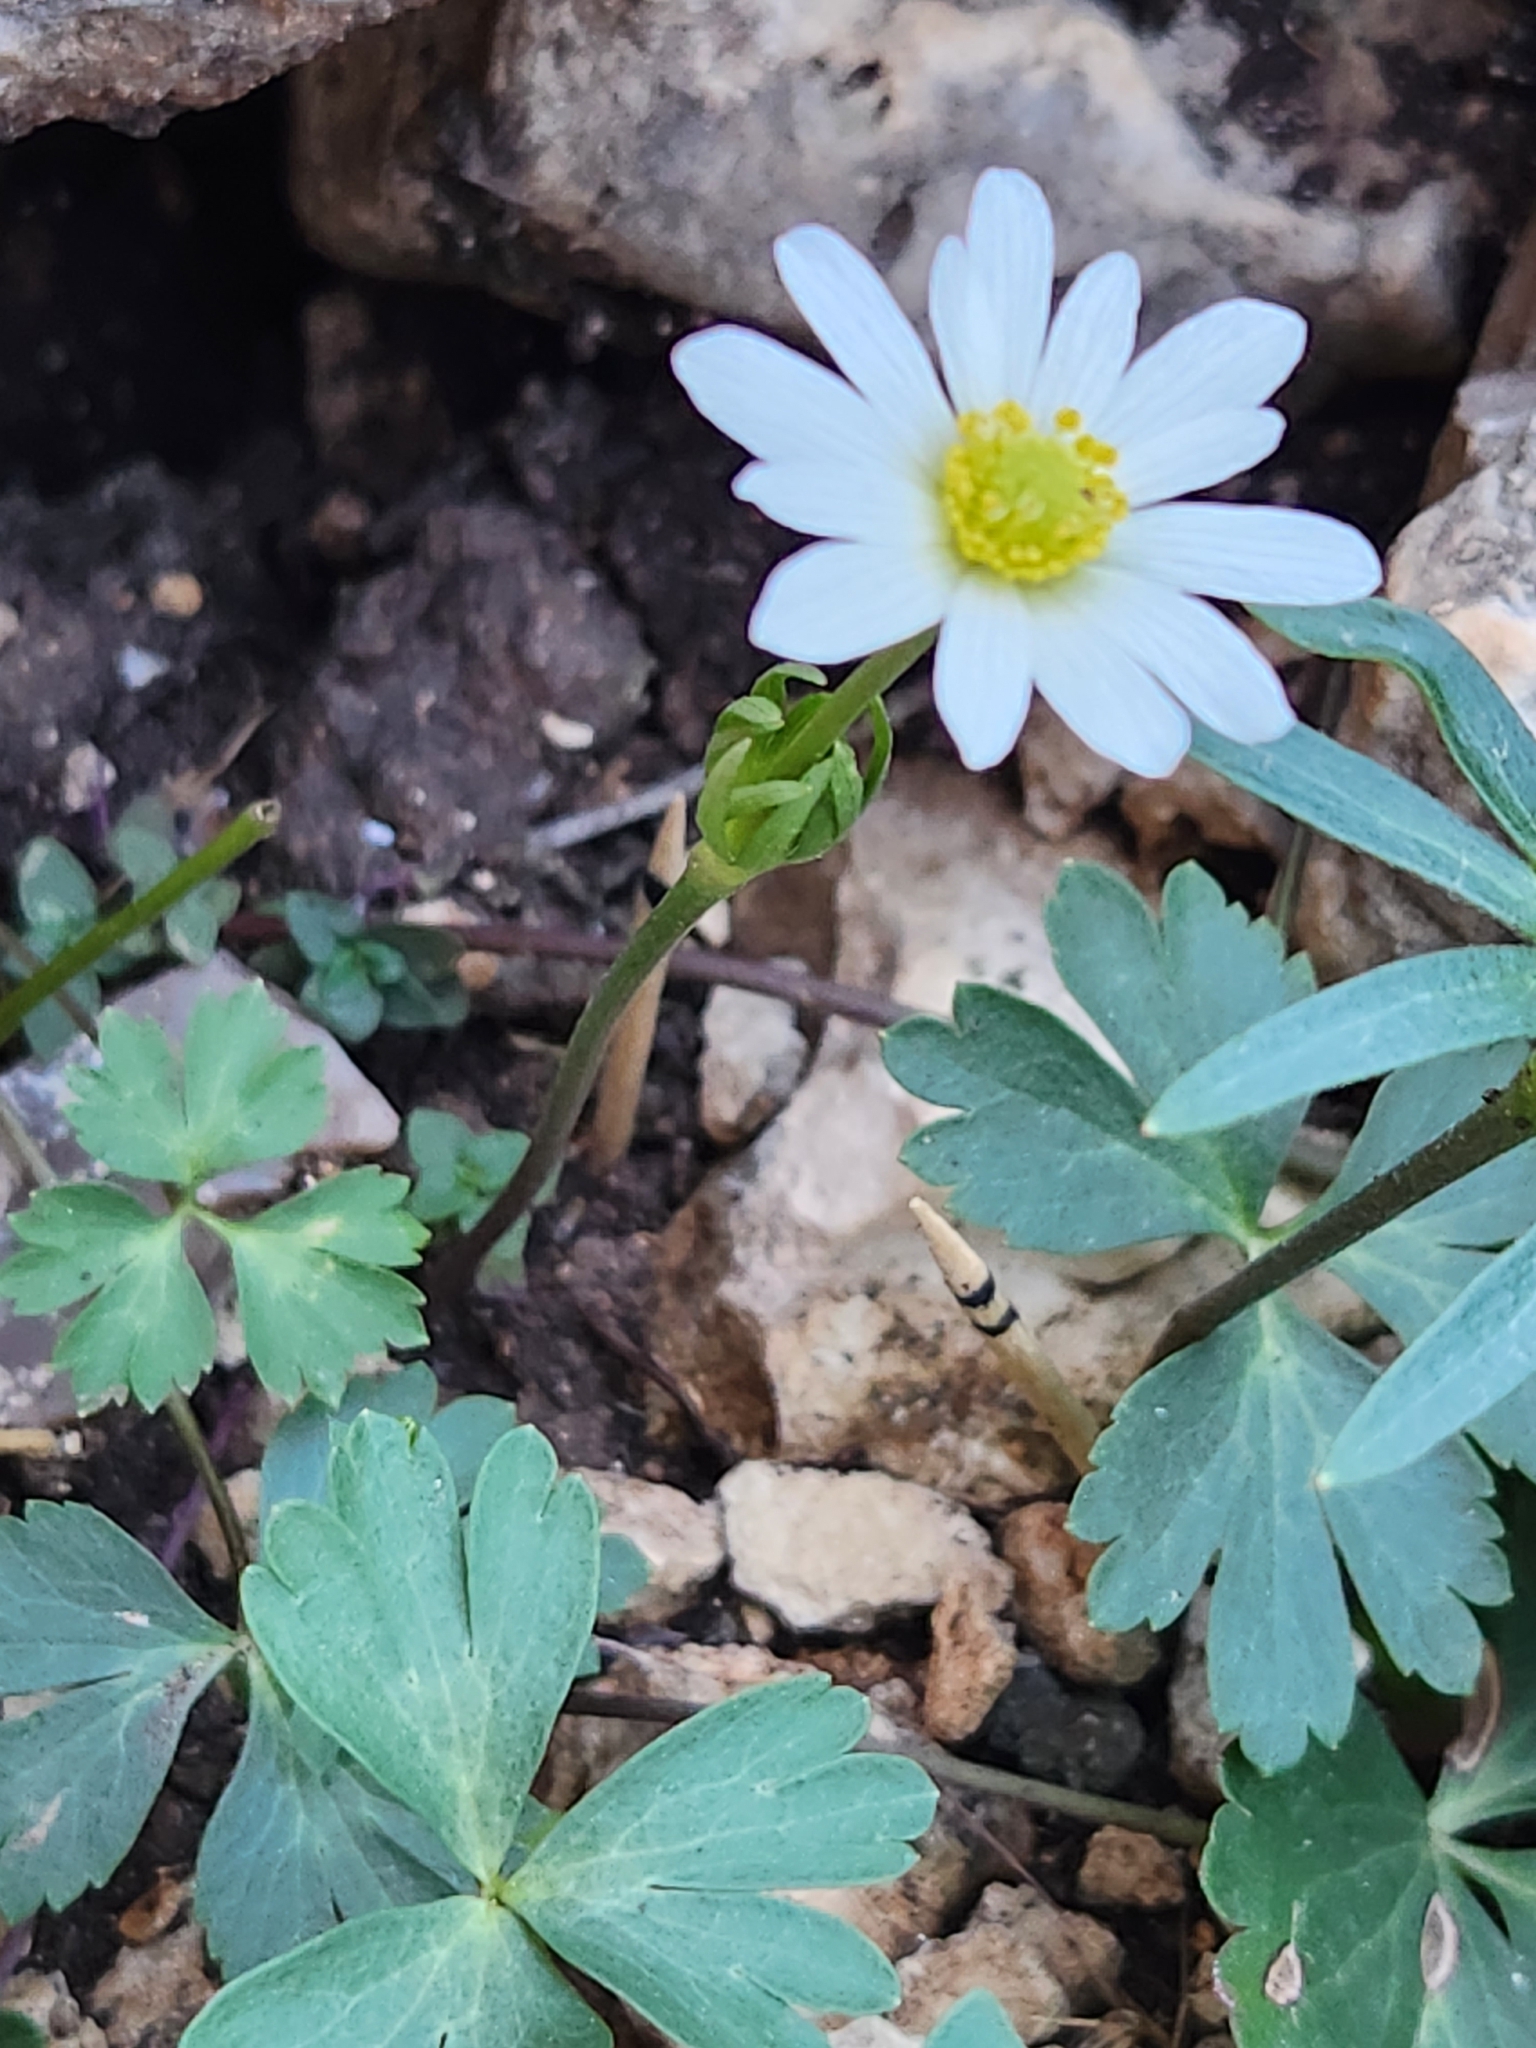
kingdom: Plantae
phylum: Tracheophyta
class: Magnoliopsida
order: Ranunculales
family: Ranunculaceae
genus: Anemone
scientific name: Anemone edwardsiana
